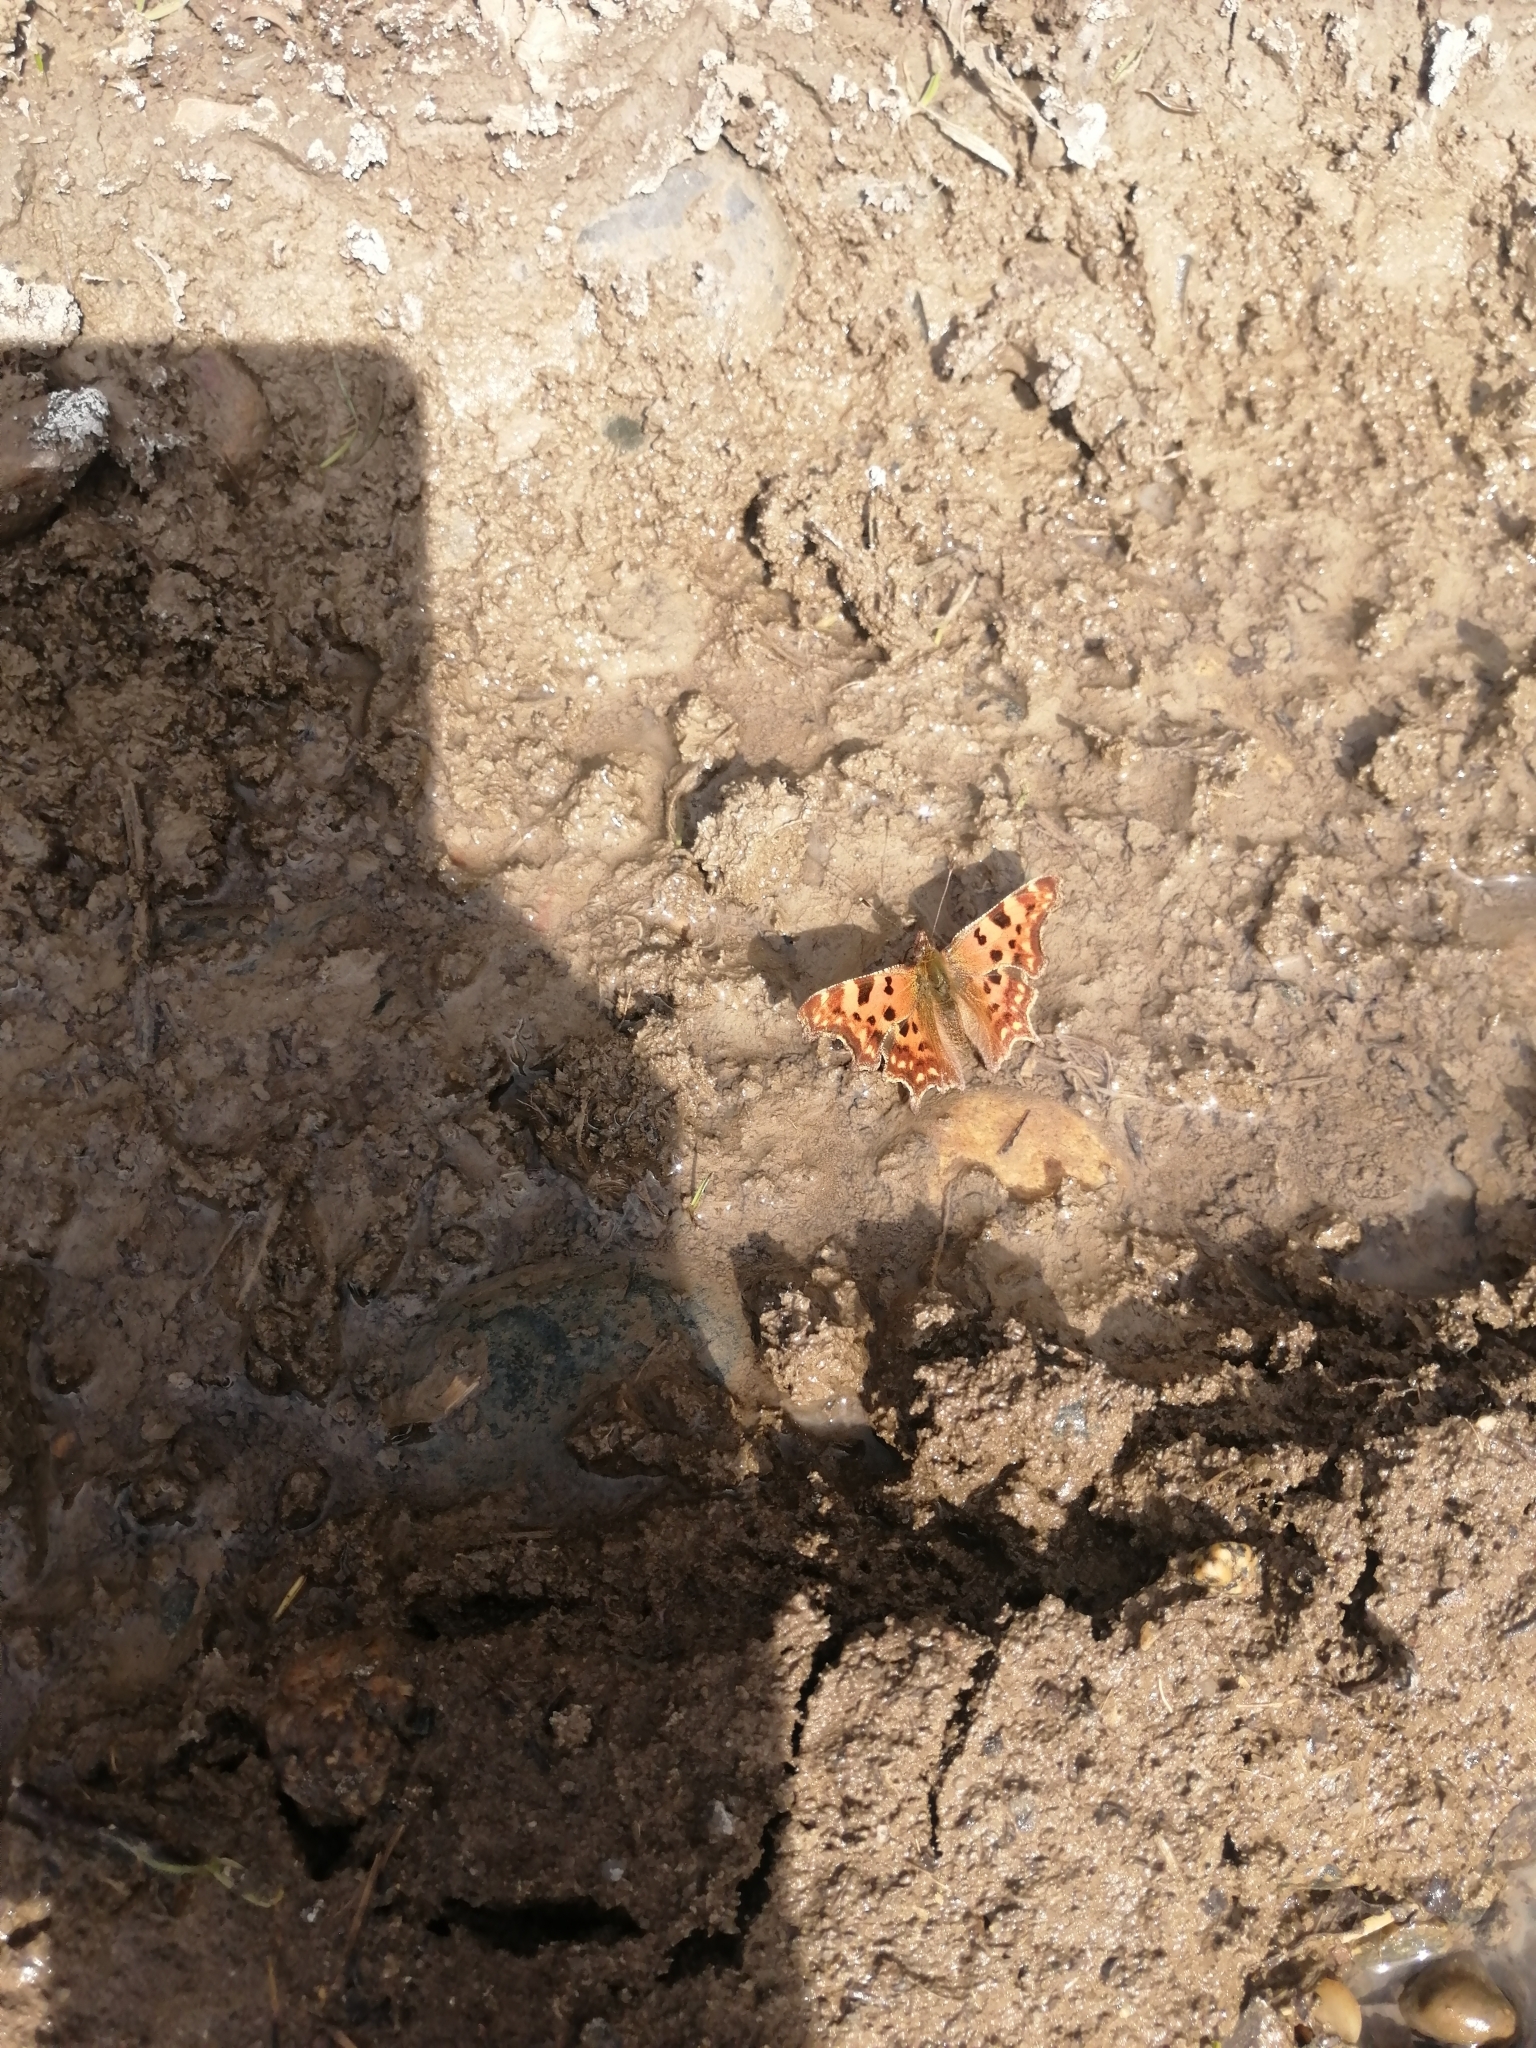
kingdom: Animalia
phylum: Arthropoda
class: Insecta
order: Lepidoptera
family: Nymphalidae
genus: Polygonia
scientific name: Polygonia c-album
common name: Comma
